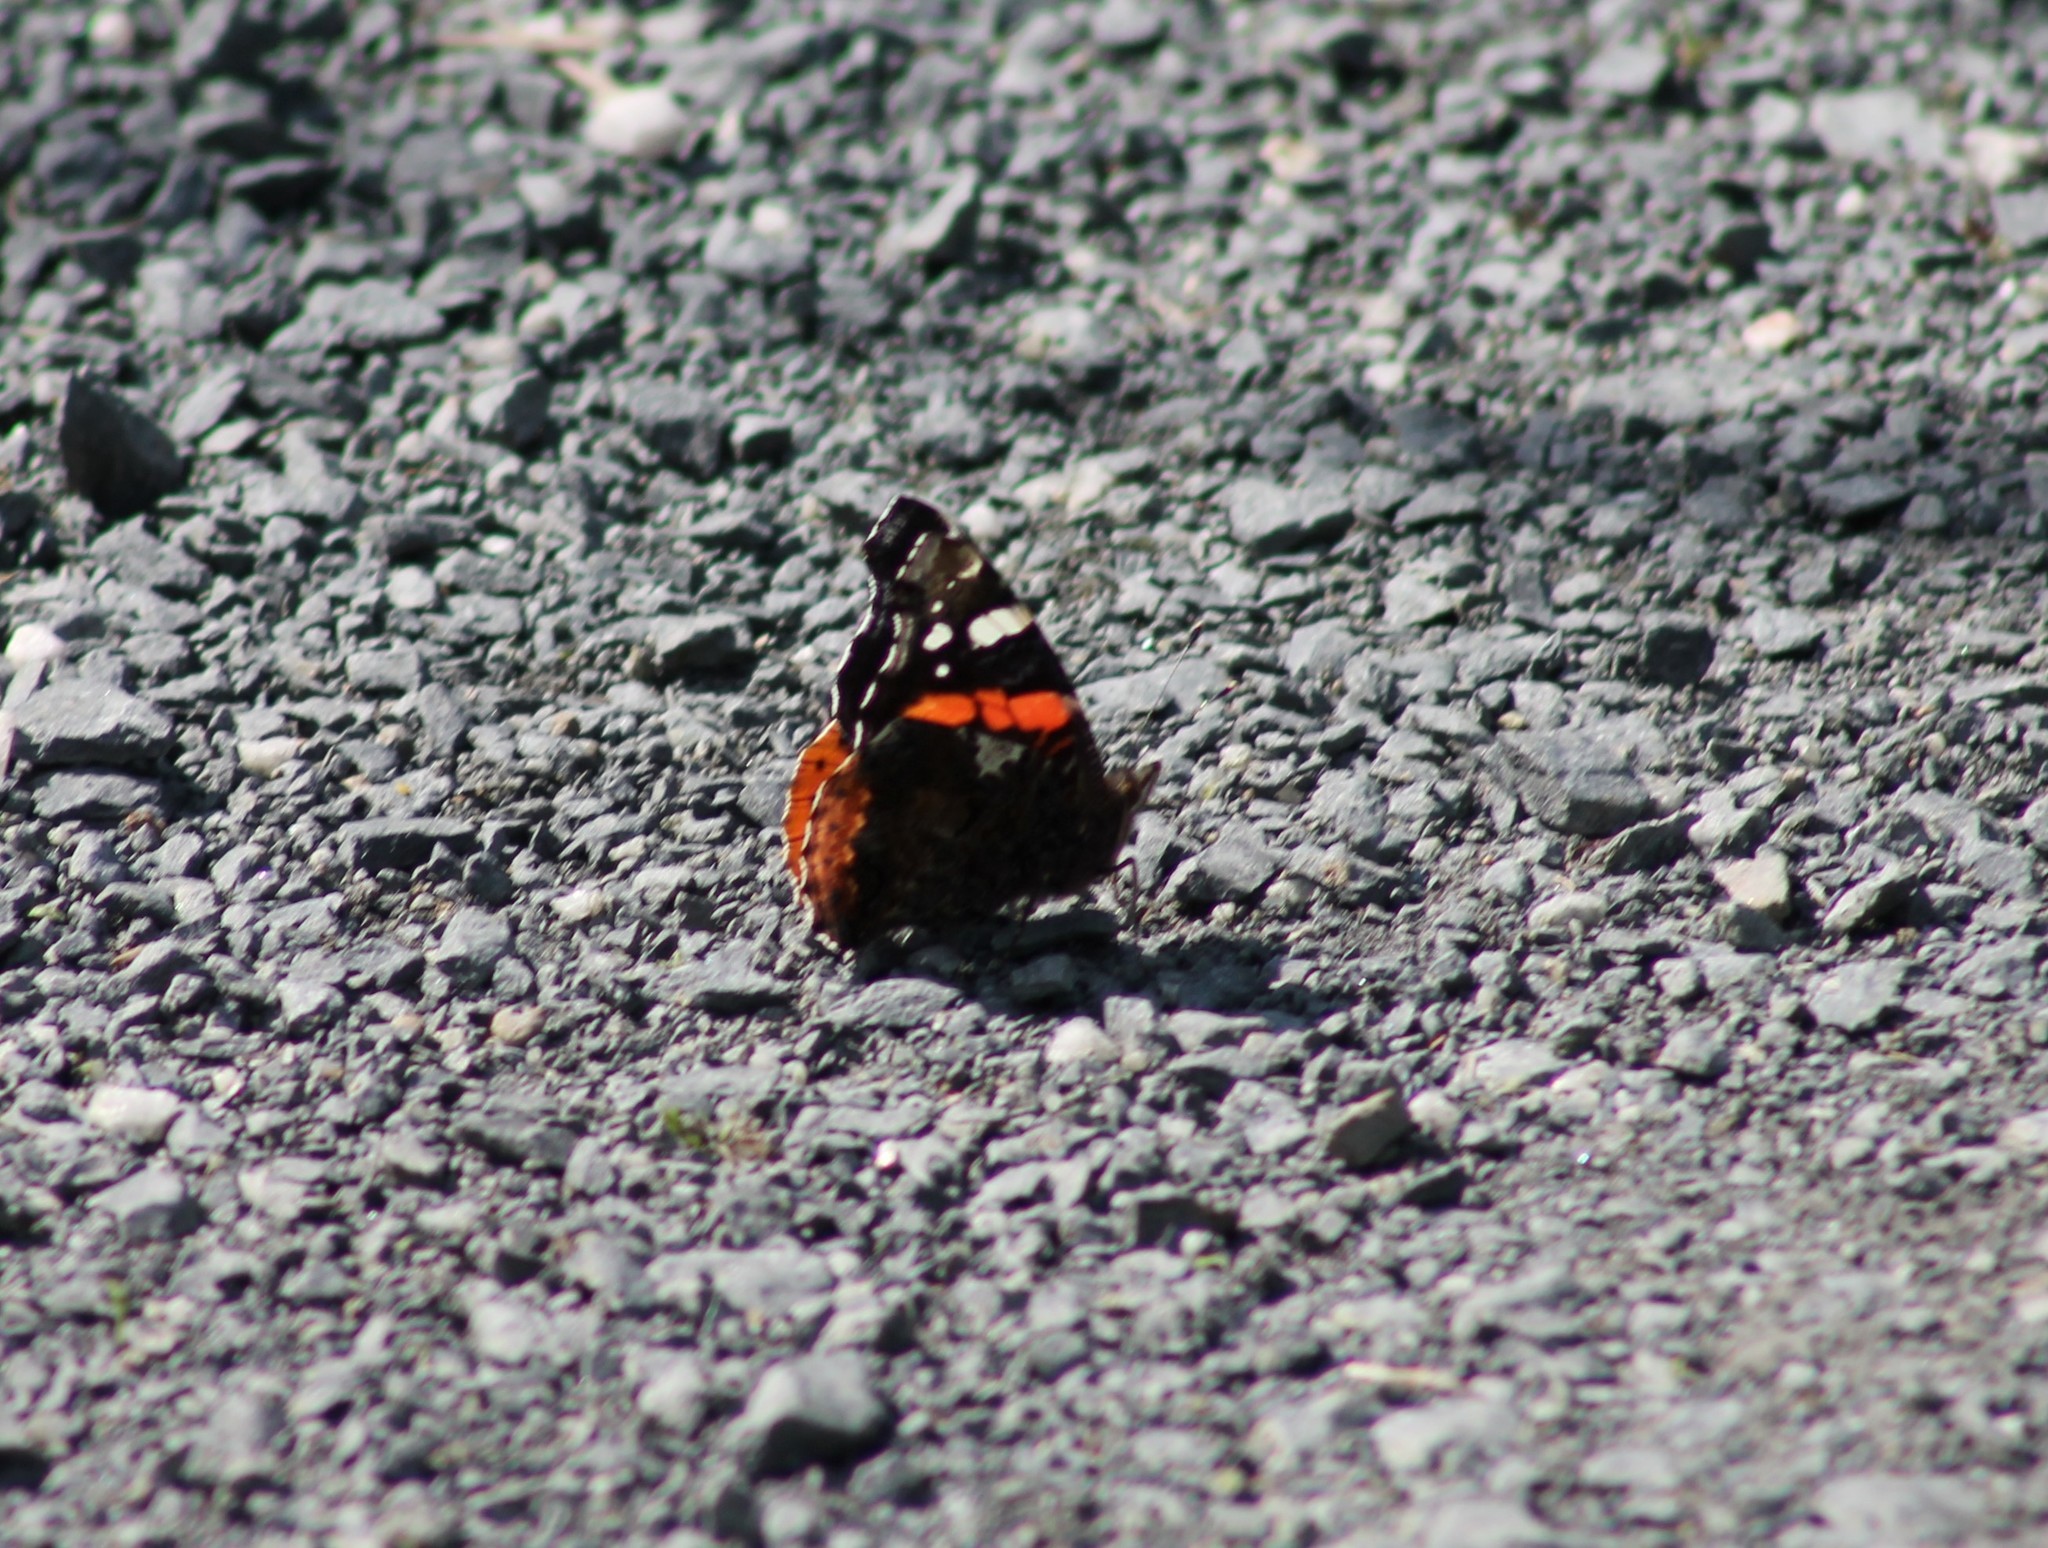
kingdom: Animalia
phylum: Arthropoda
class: Insecta
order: Lepidoptera
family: Nymphalidae
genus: Vanessa
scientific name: Vanessa atalanta
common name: Red admiral
